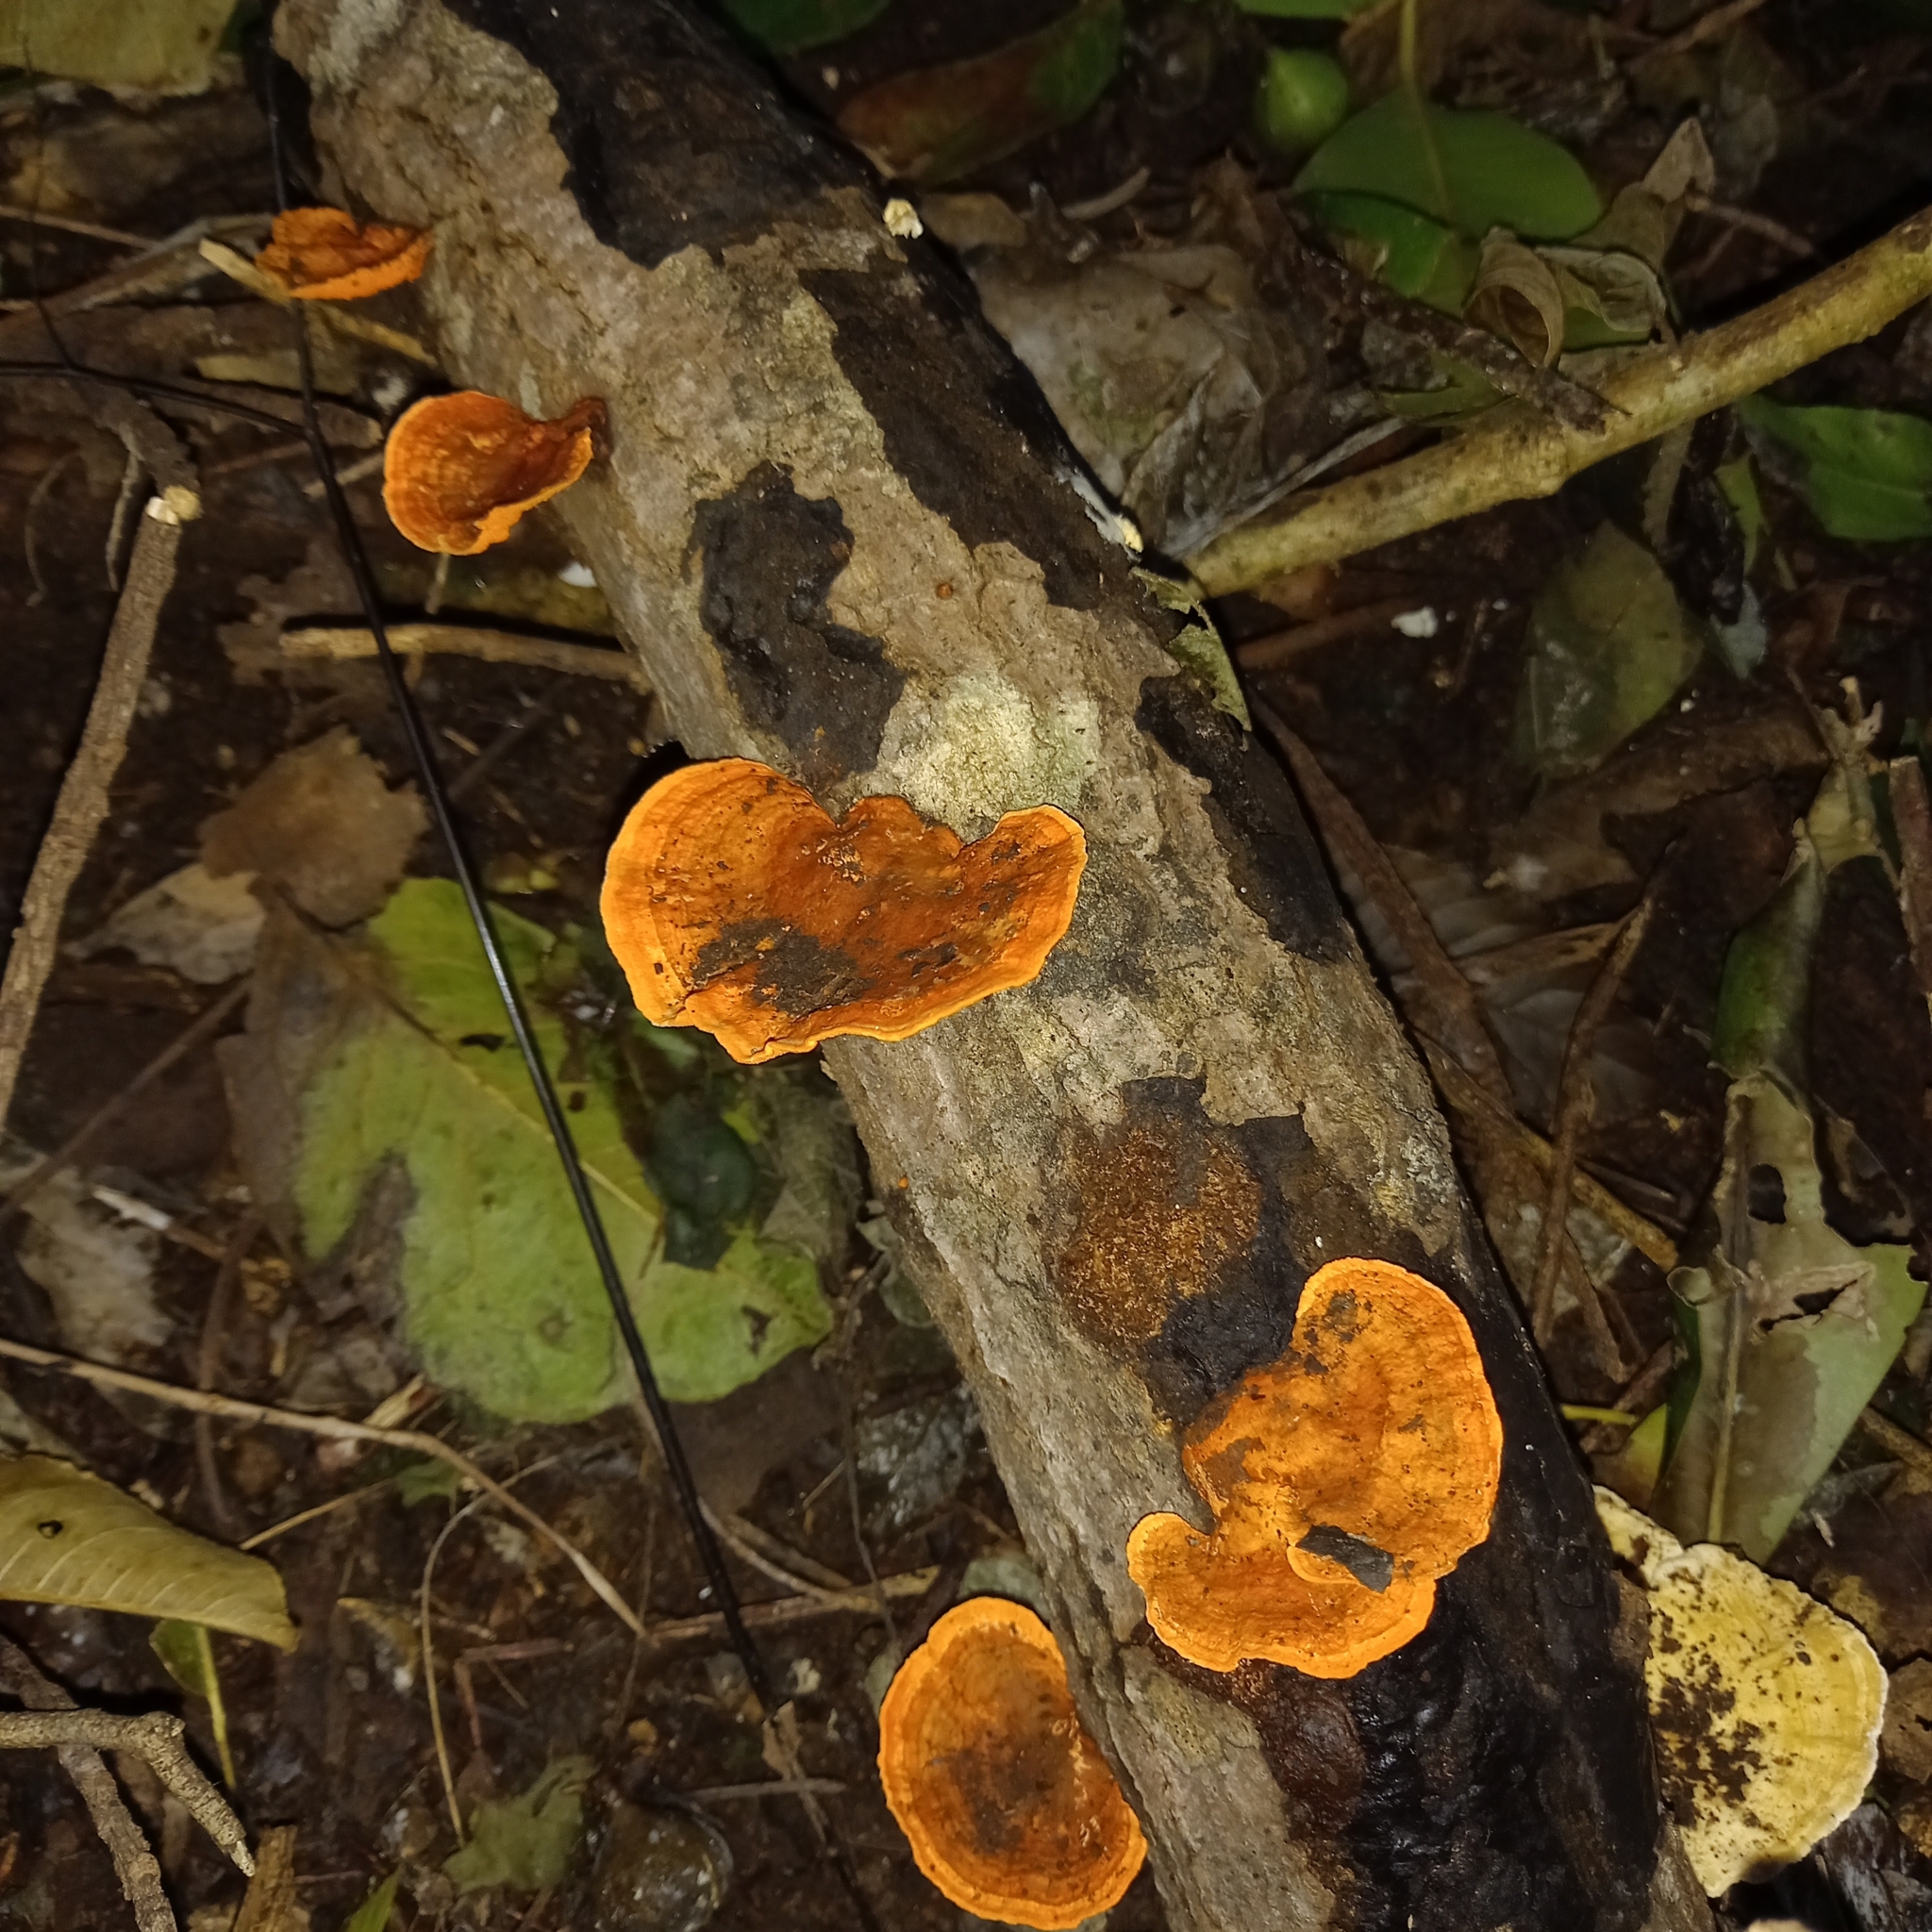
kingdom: Fungi
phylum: Basidiomycota
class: Agaricomycetes
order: Polyporales
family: Polyporaceae
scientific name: Polyporaceae
